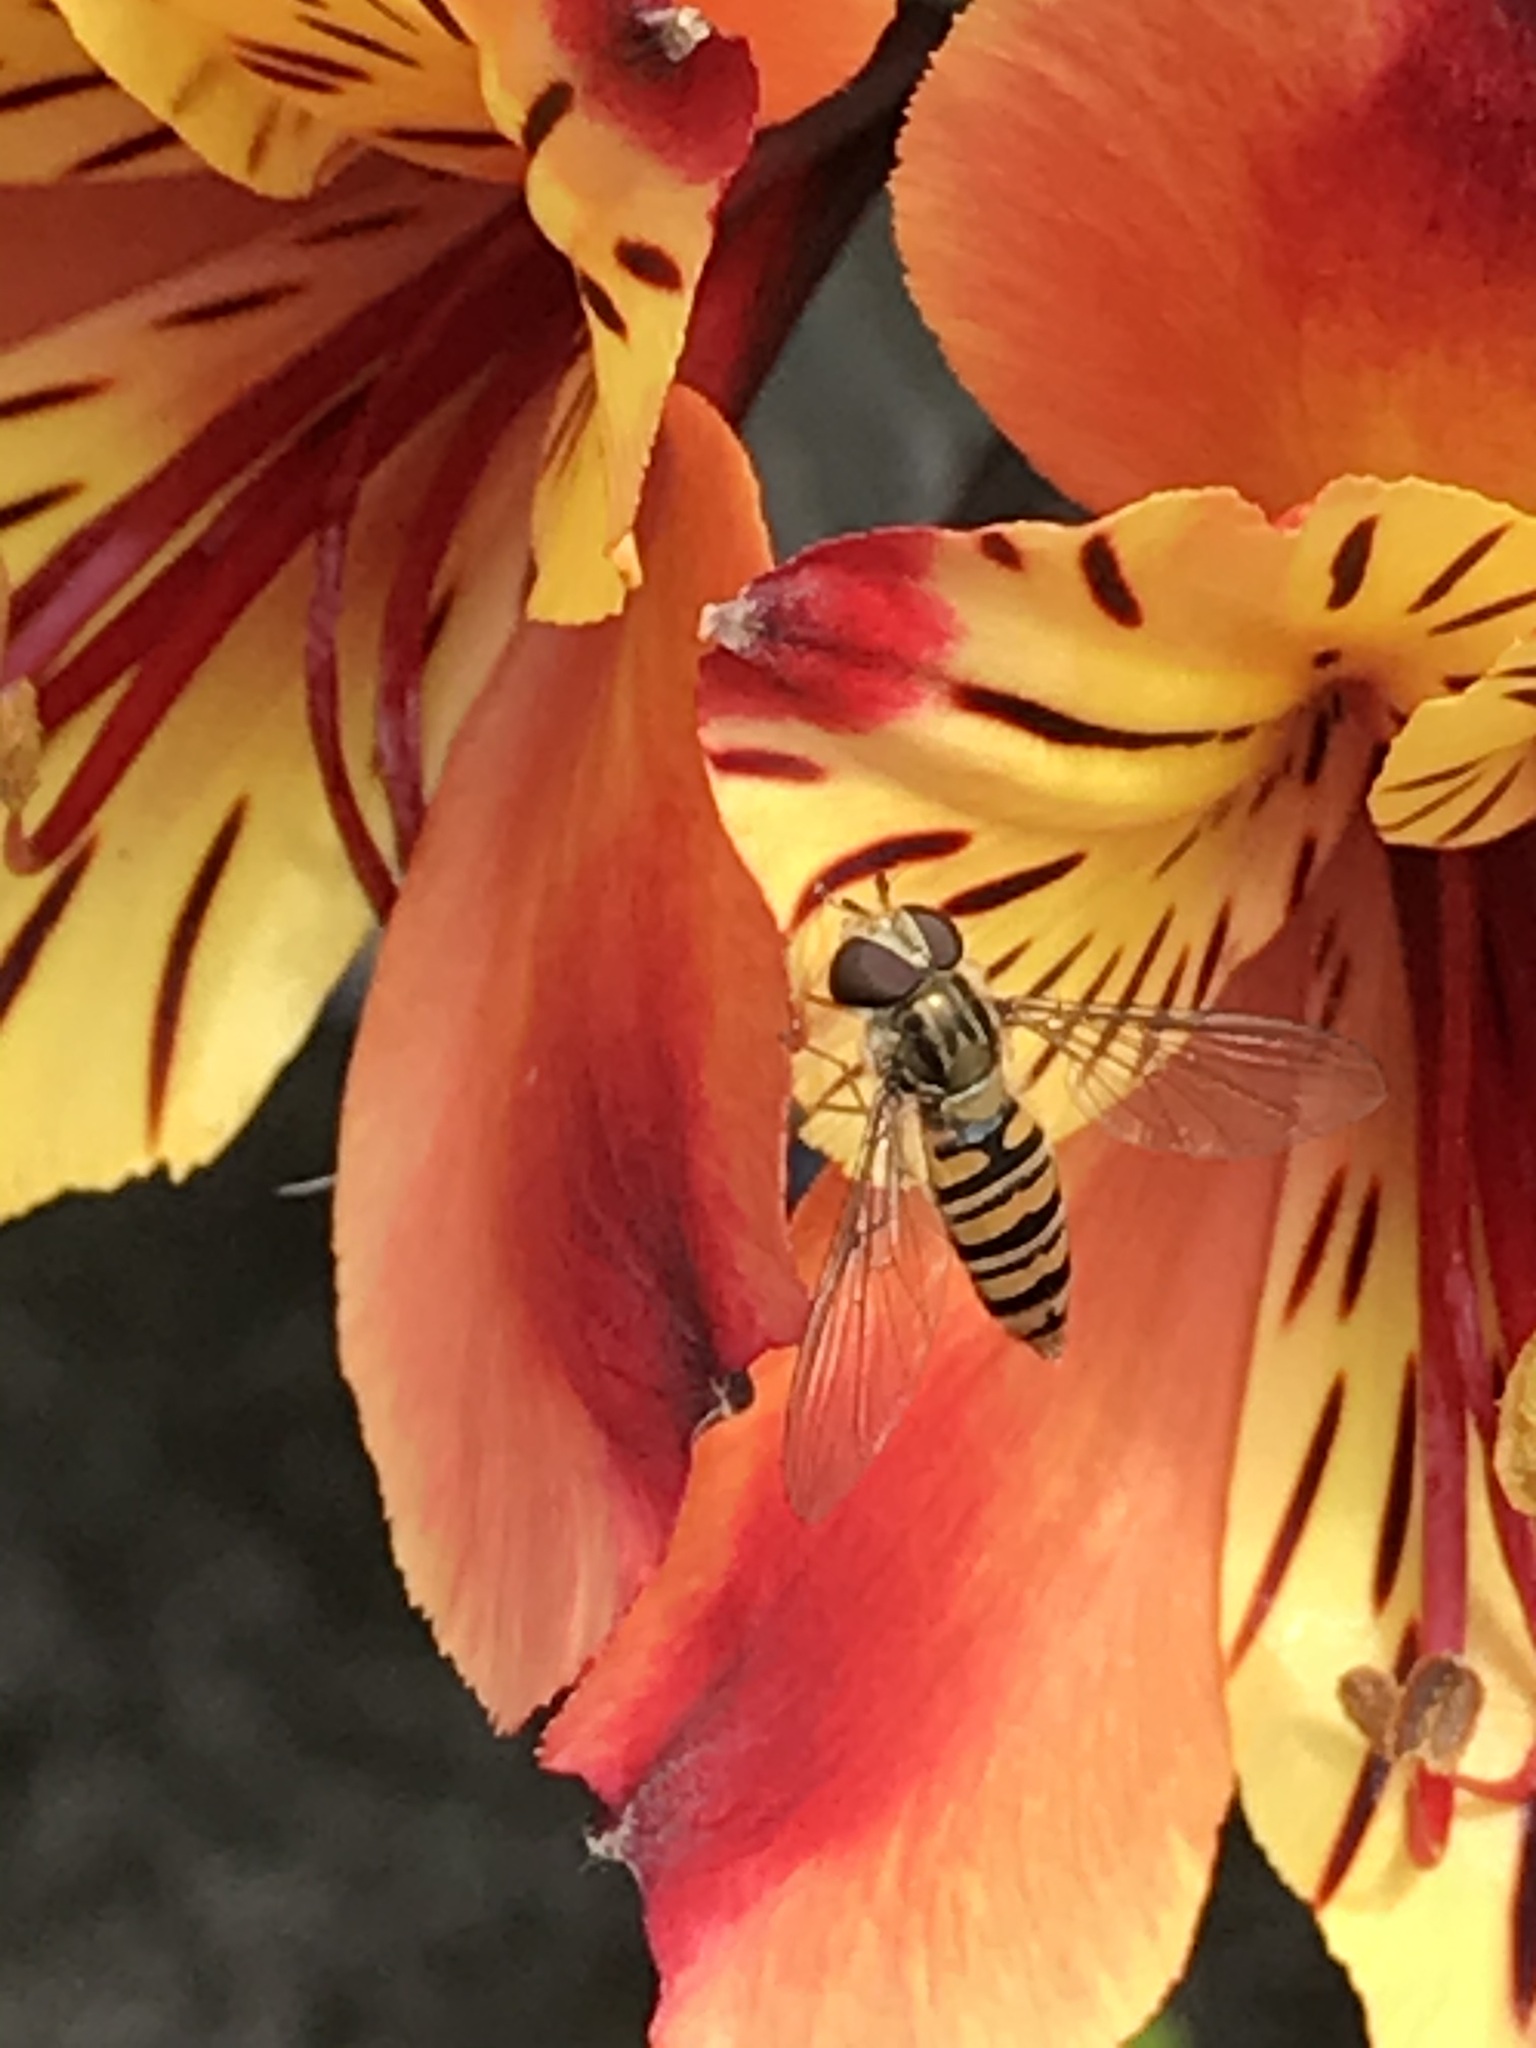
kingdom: Animalia
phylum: Arthropoda
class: Insecta
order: Diptera
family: Syrphidae
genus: Episyrphus
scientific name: Episyrphus balteatus
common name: Marmalade hoverfly
